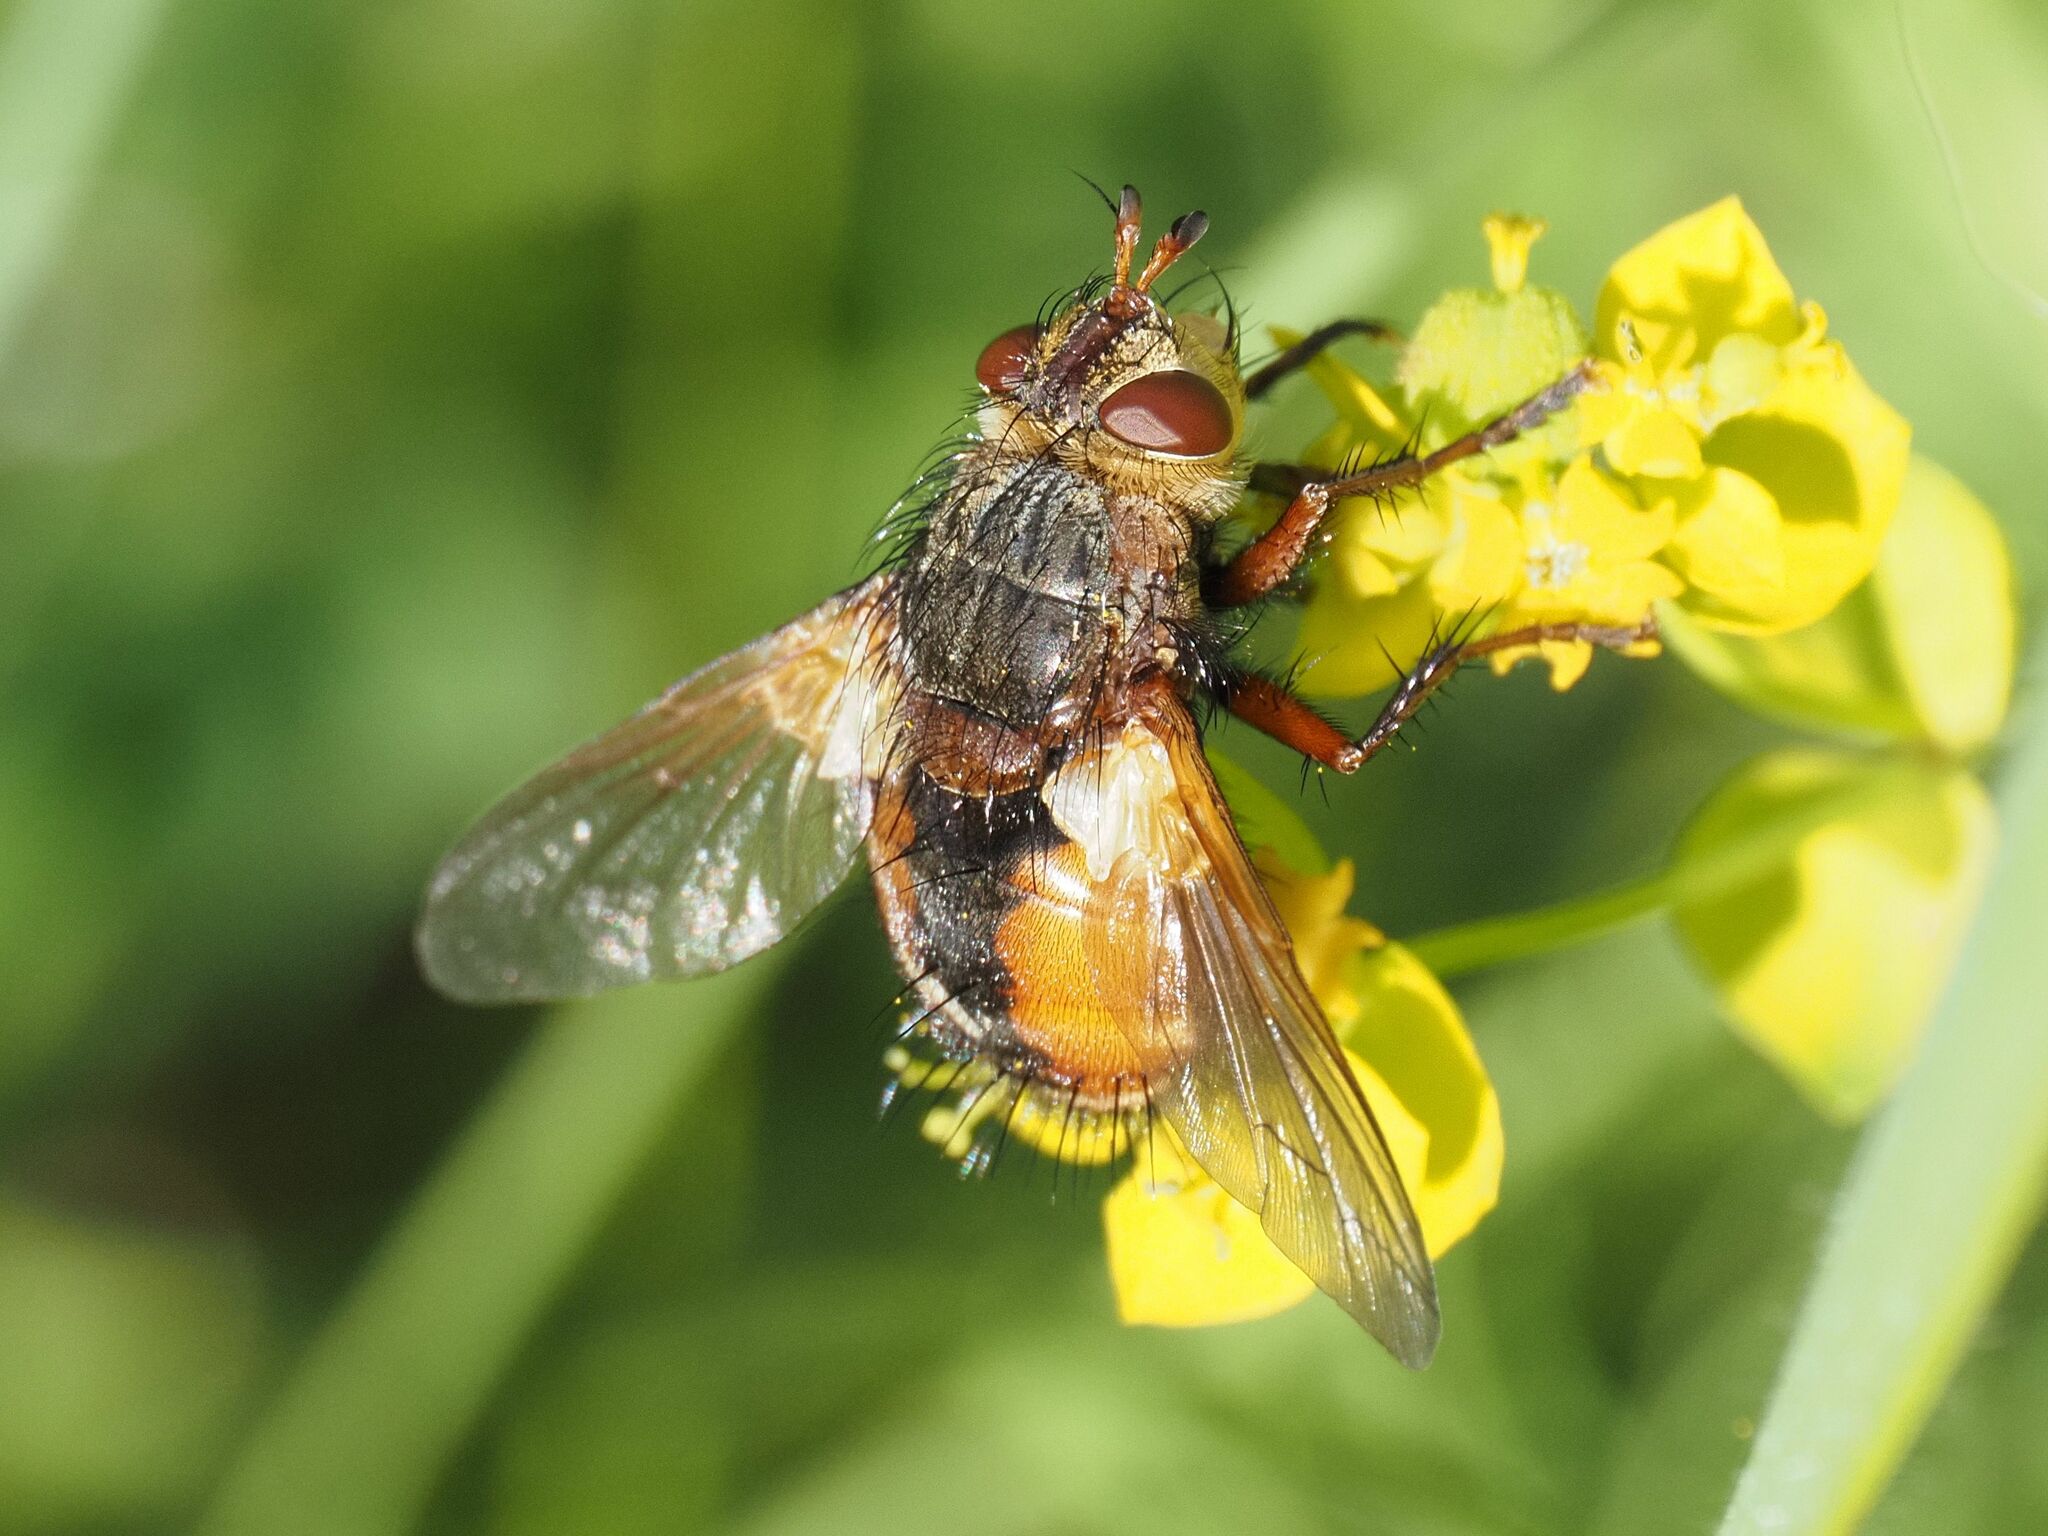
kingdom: Animalia
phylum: Arthropoda
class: Insecta
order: Diptera
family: Tachinidae
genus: Tachina
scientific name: Tachina fera
